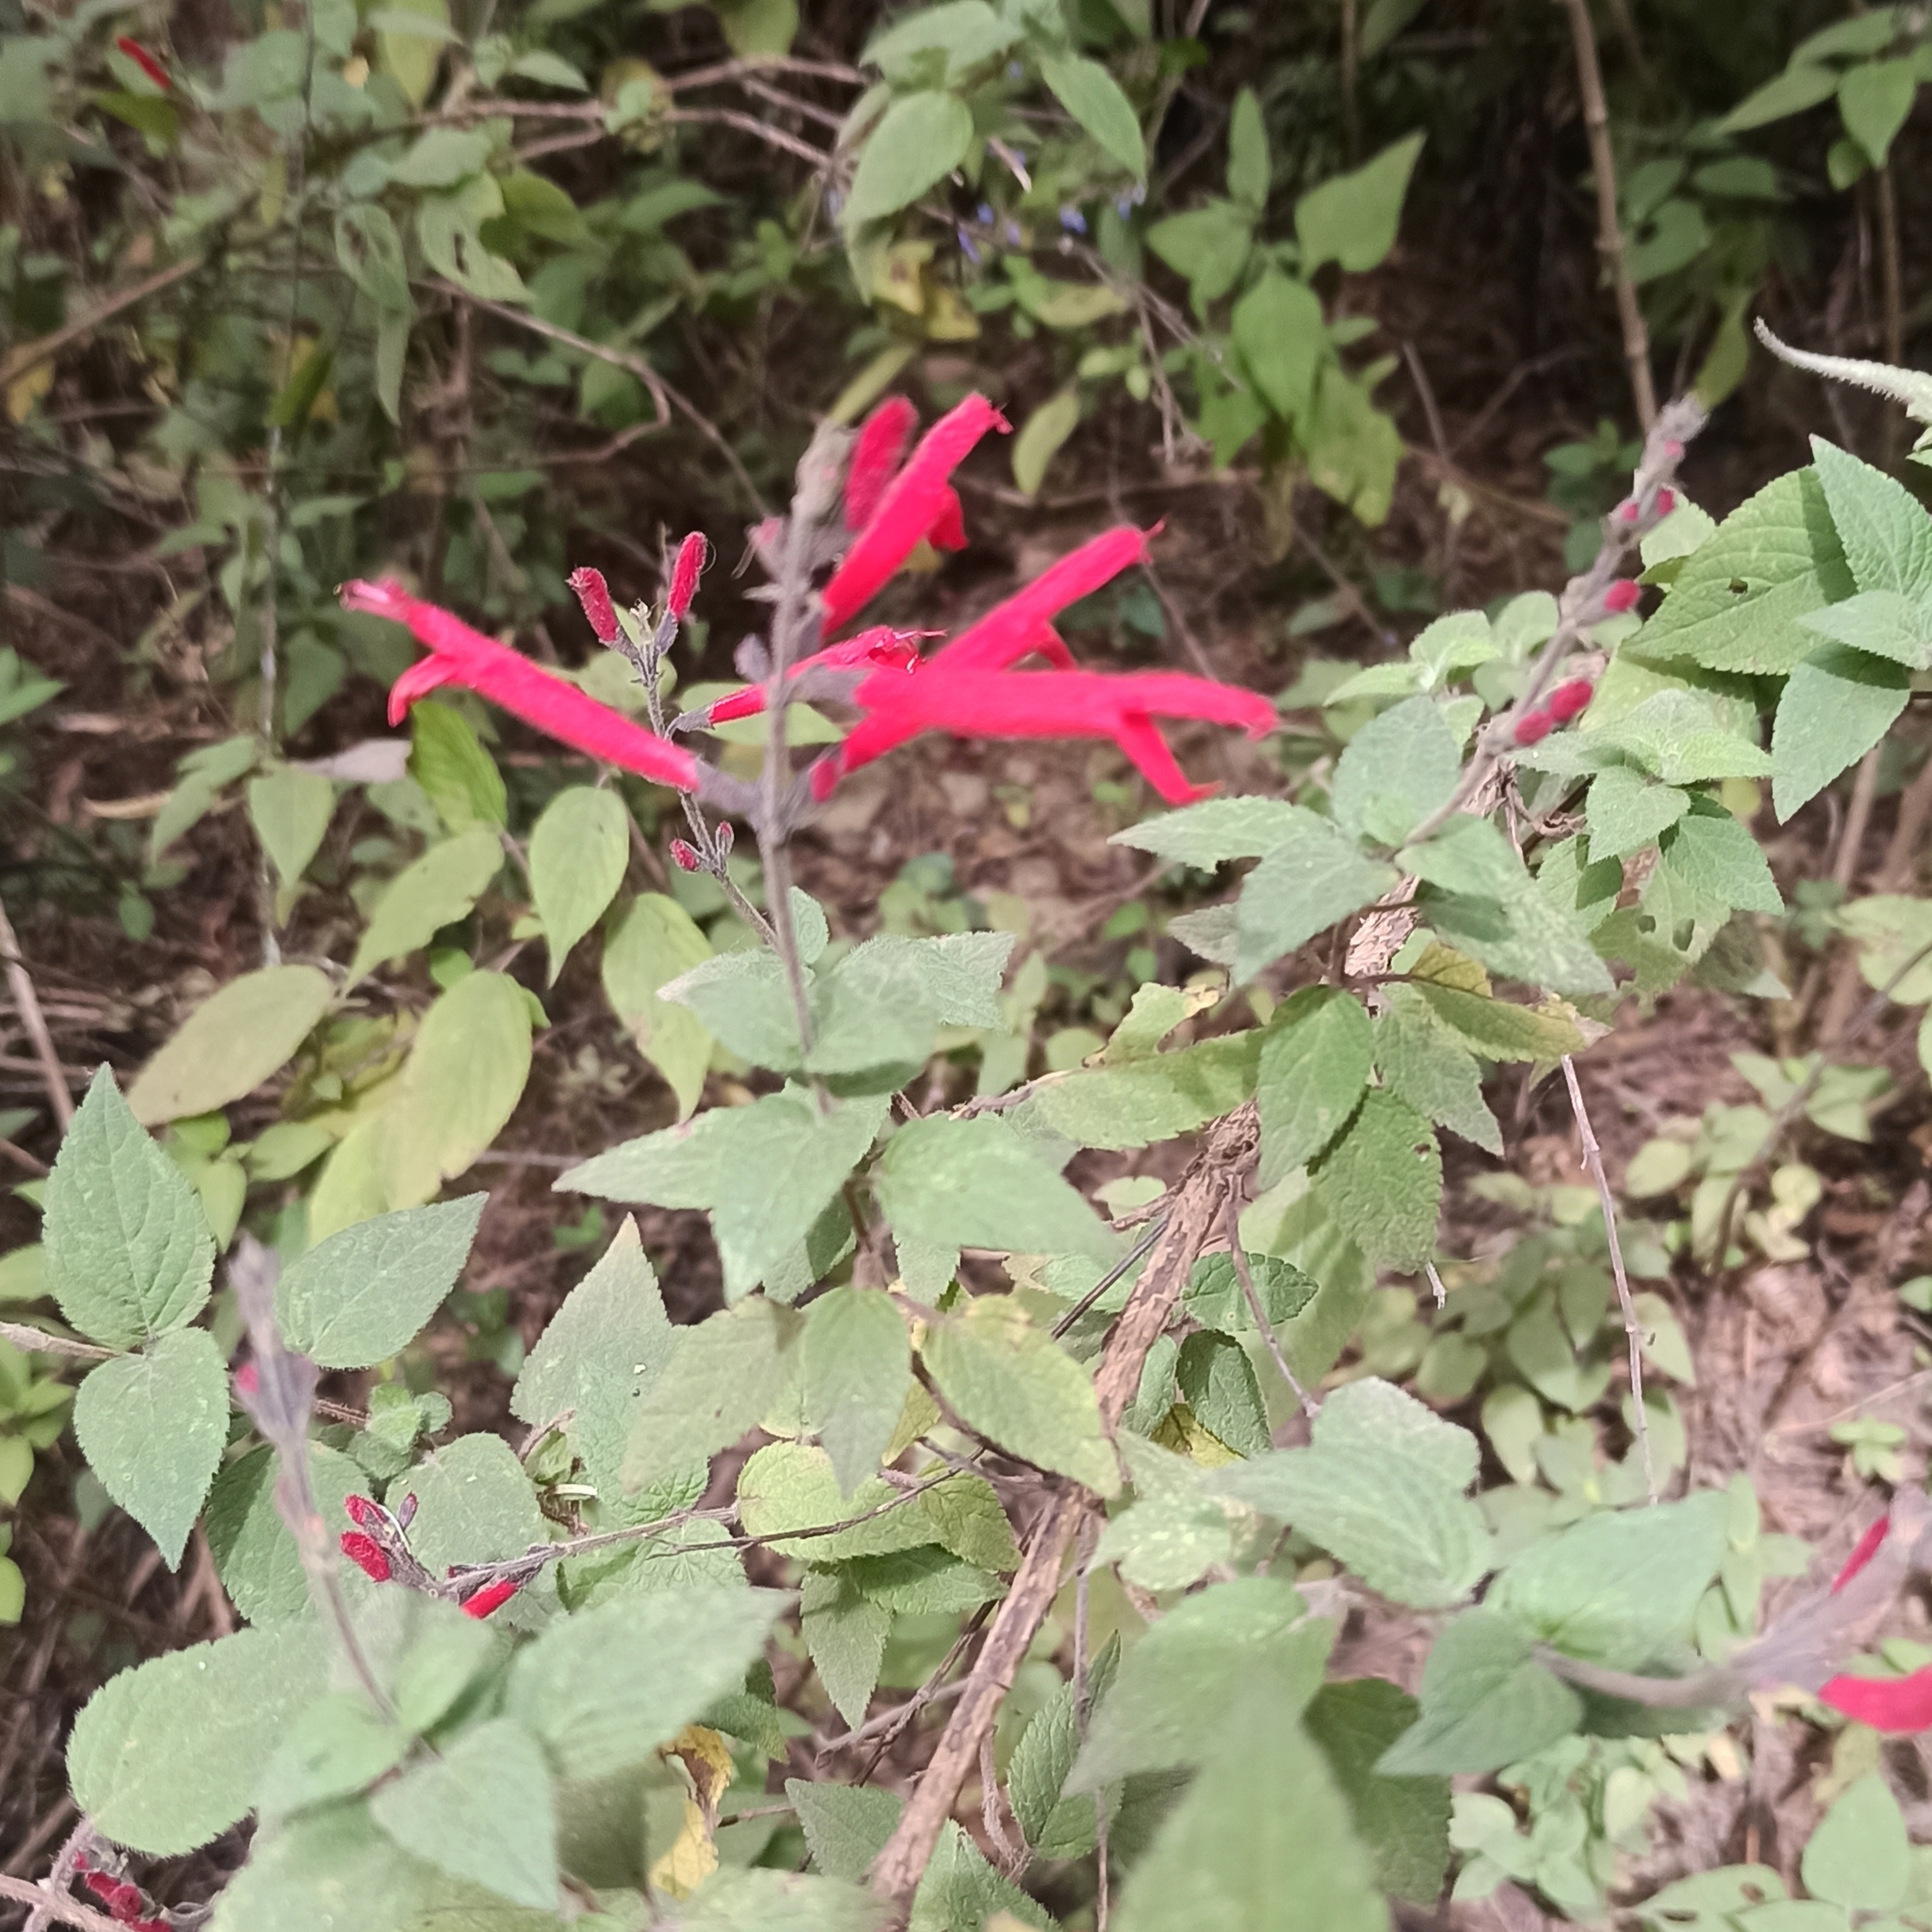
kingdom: Plantae
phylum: Tracheophyta
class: Magnoliopsida
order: Lamiales
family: Lamiaceae
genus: Salvia
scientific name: Salvia elegans
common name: Pineapple sage
